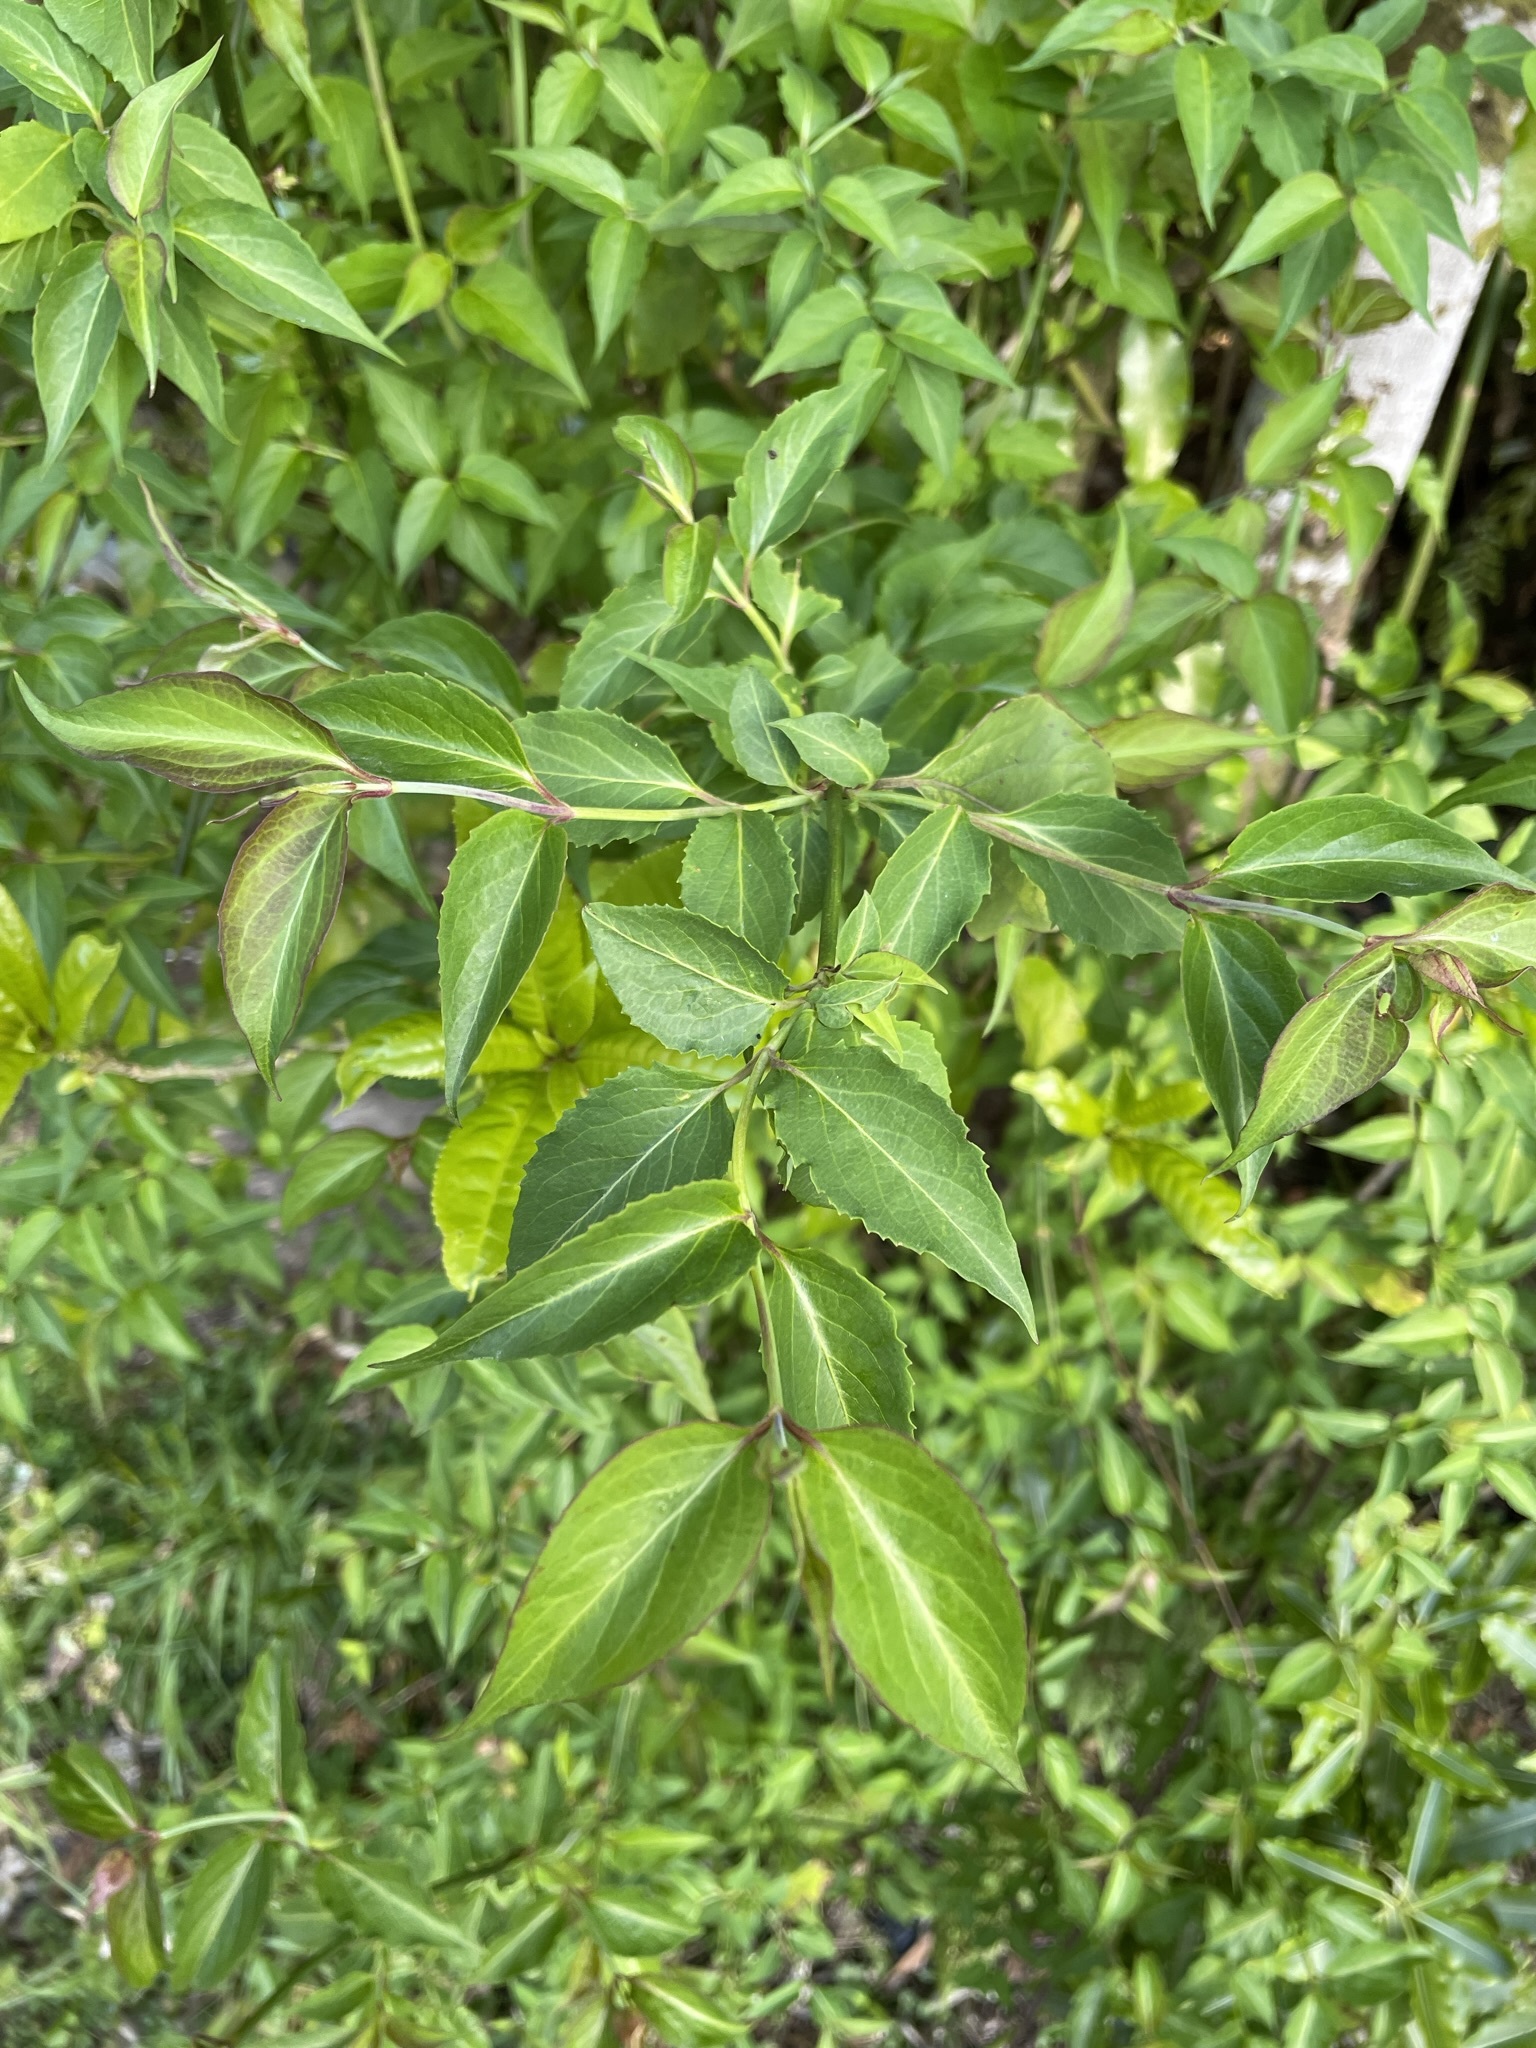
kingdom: Plantae
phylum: Tracheophyta
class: Magnoliopsida
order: Dipsacales
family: Caprifoliaceae
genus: Leycesteria
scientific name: Leycesteria formosa
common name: Himalayan honeysuckle
